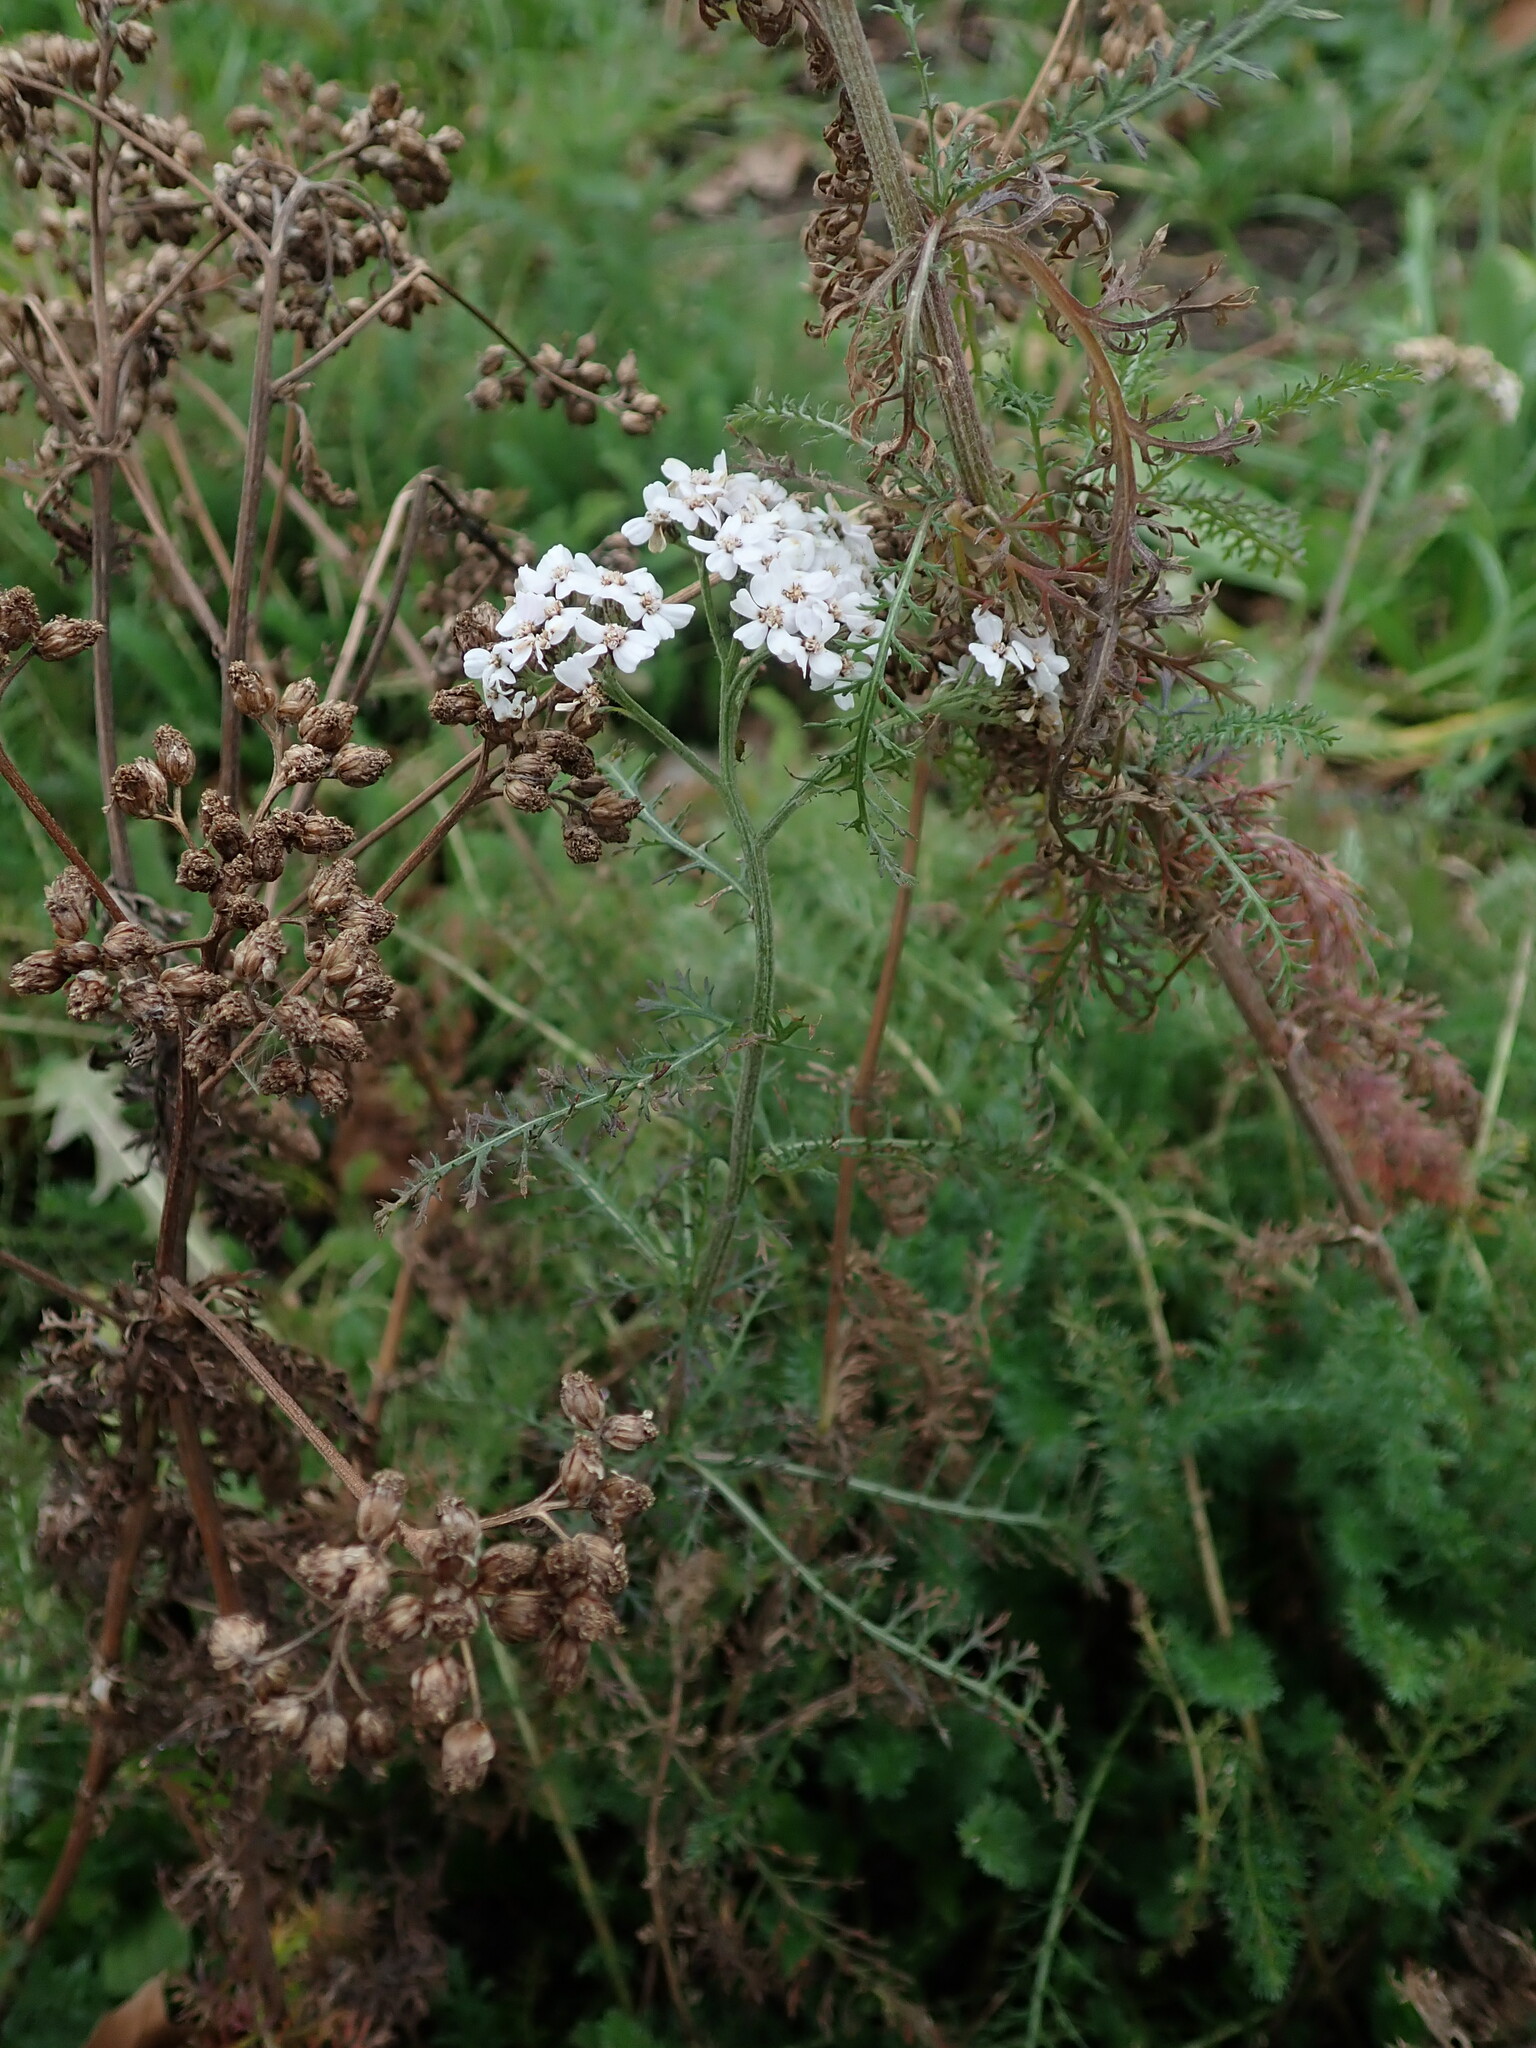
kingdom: Plantae
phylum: Tracheophyta
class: Magnoliopsida
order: Asterales
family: Asteraceae
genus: Achillea
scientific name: Achillea millefolium
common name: Yarrow
